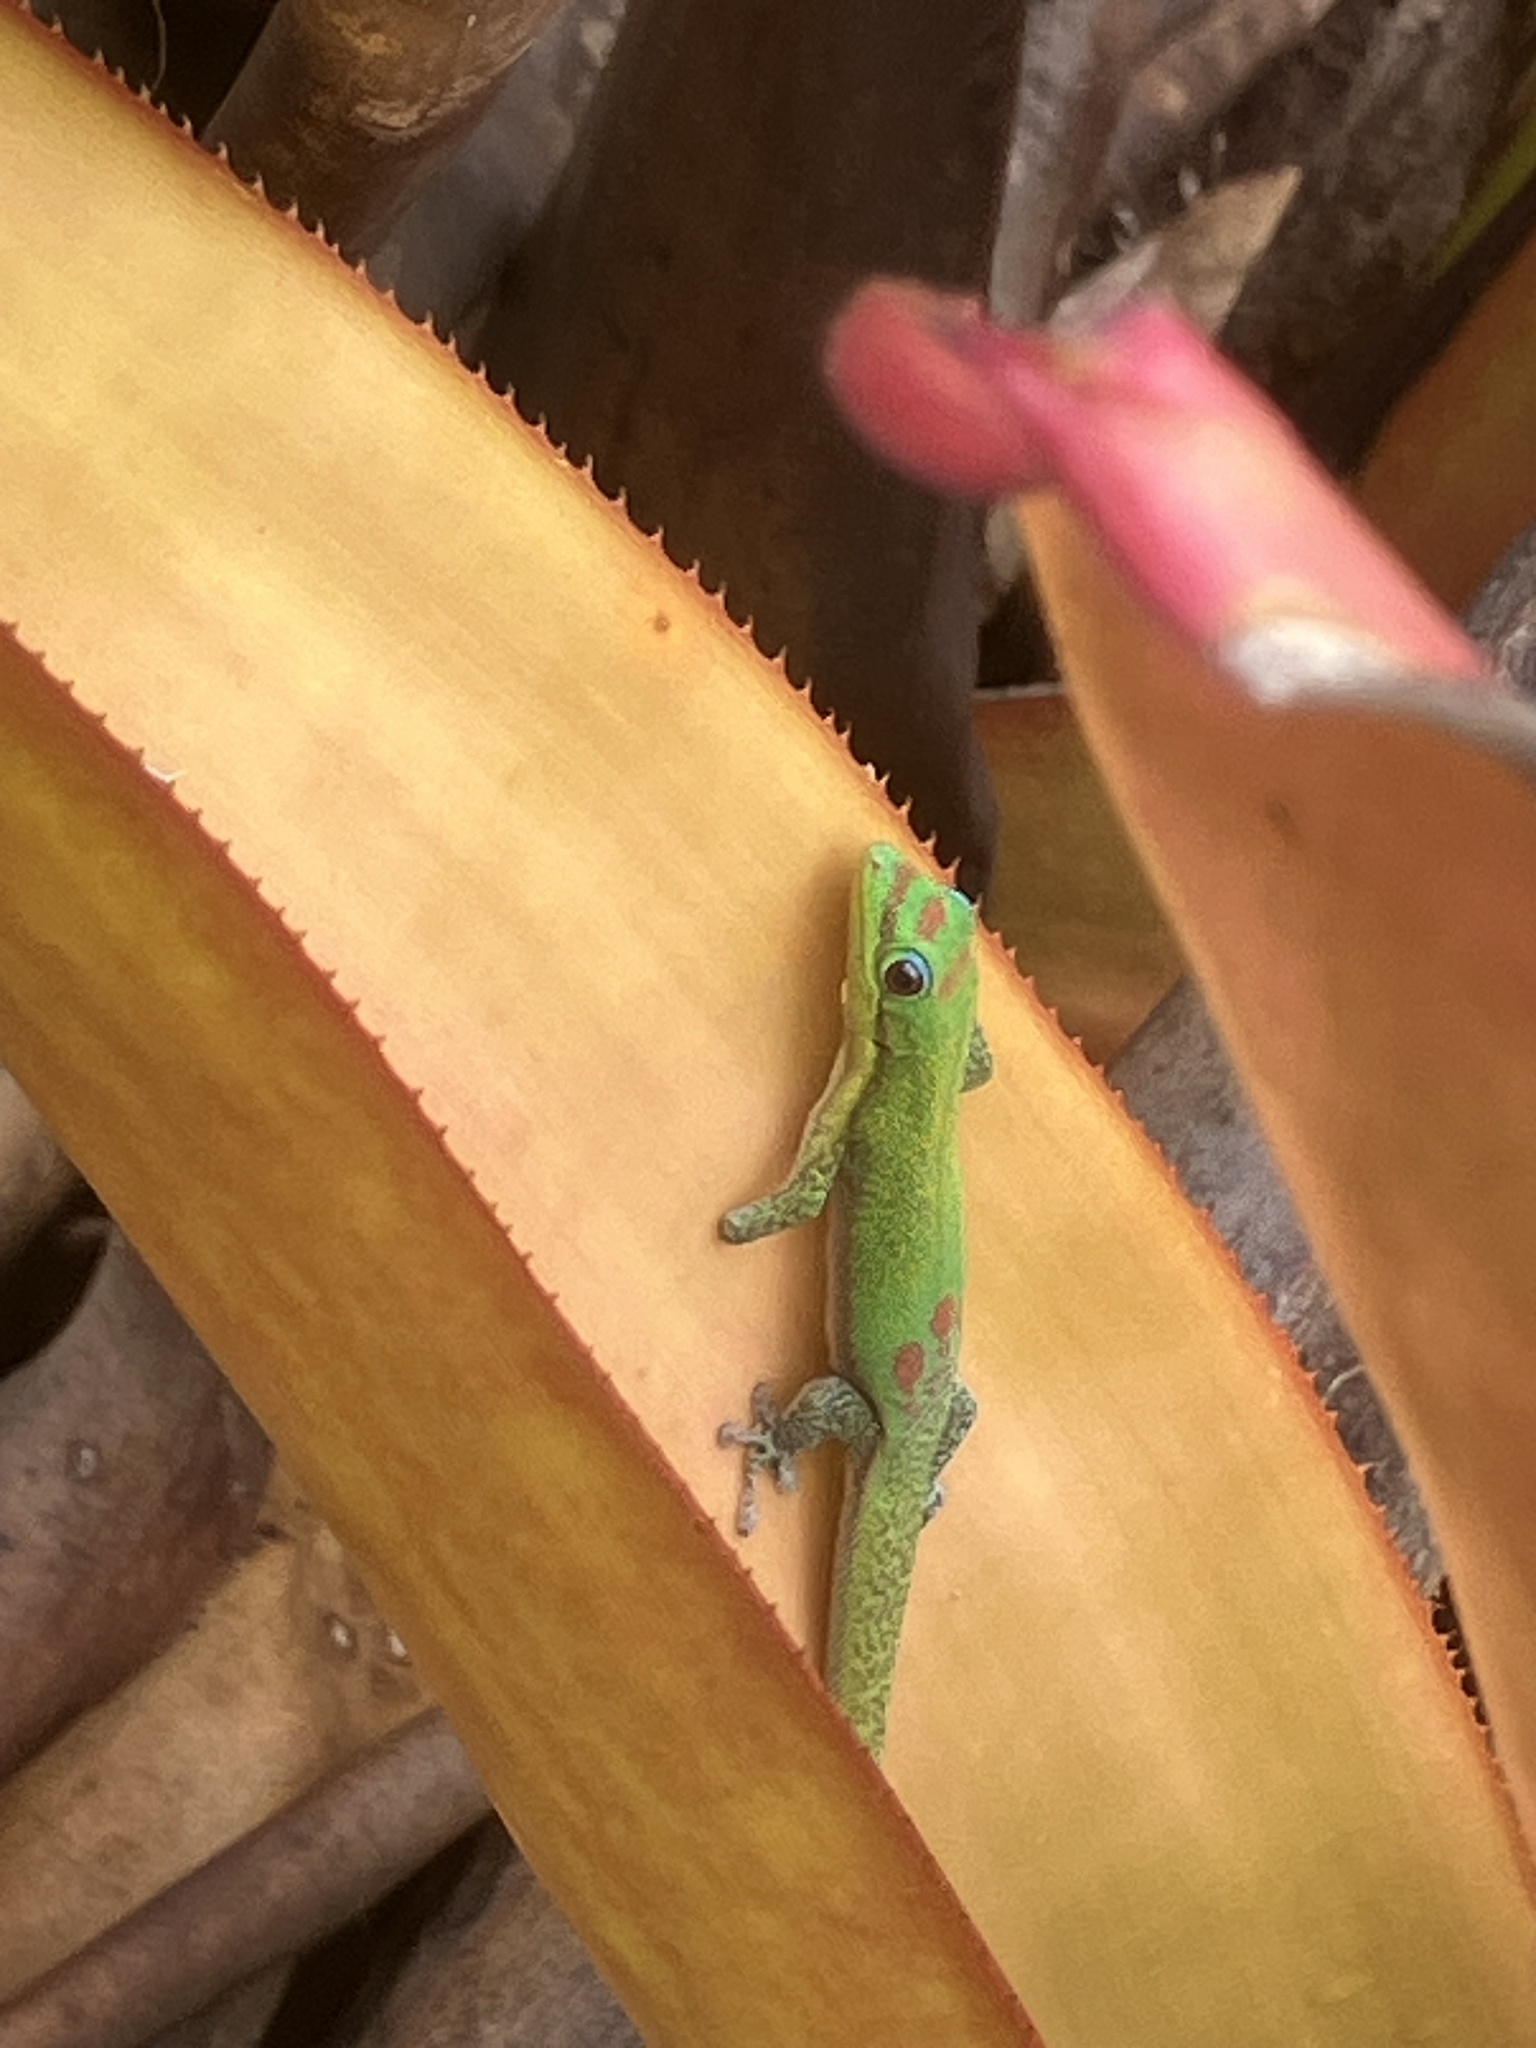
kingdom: Animalia
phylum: Chordata
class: Squamata
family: Gekkonidae
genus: Phelsuma
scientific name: Phelsuma laticauda
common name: Gold dust day gecko
